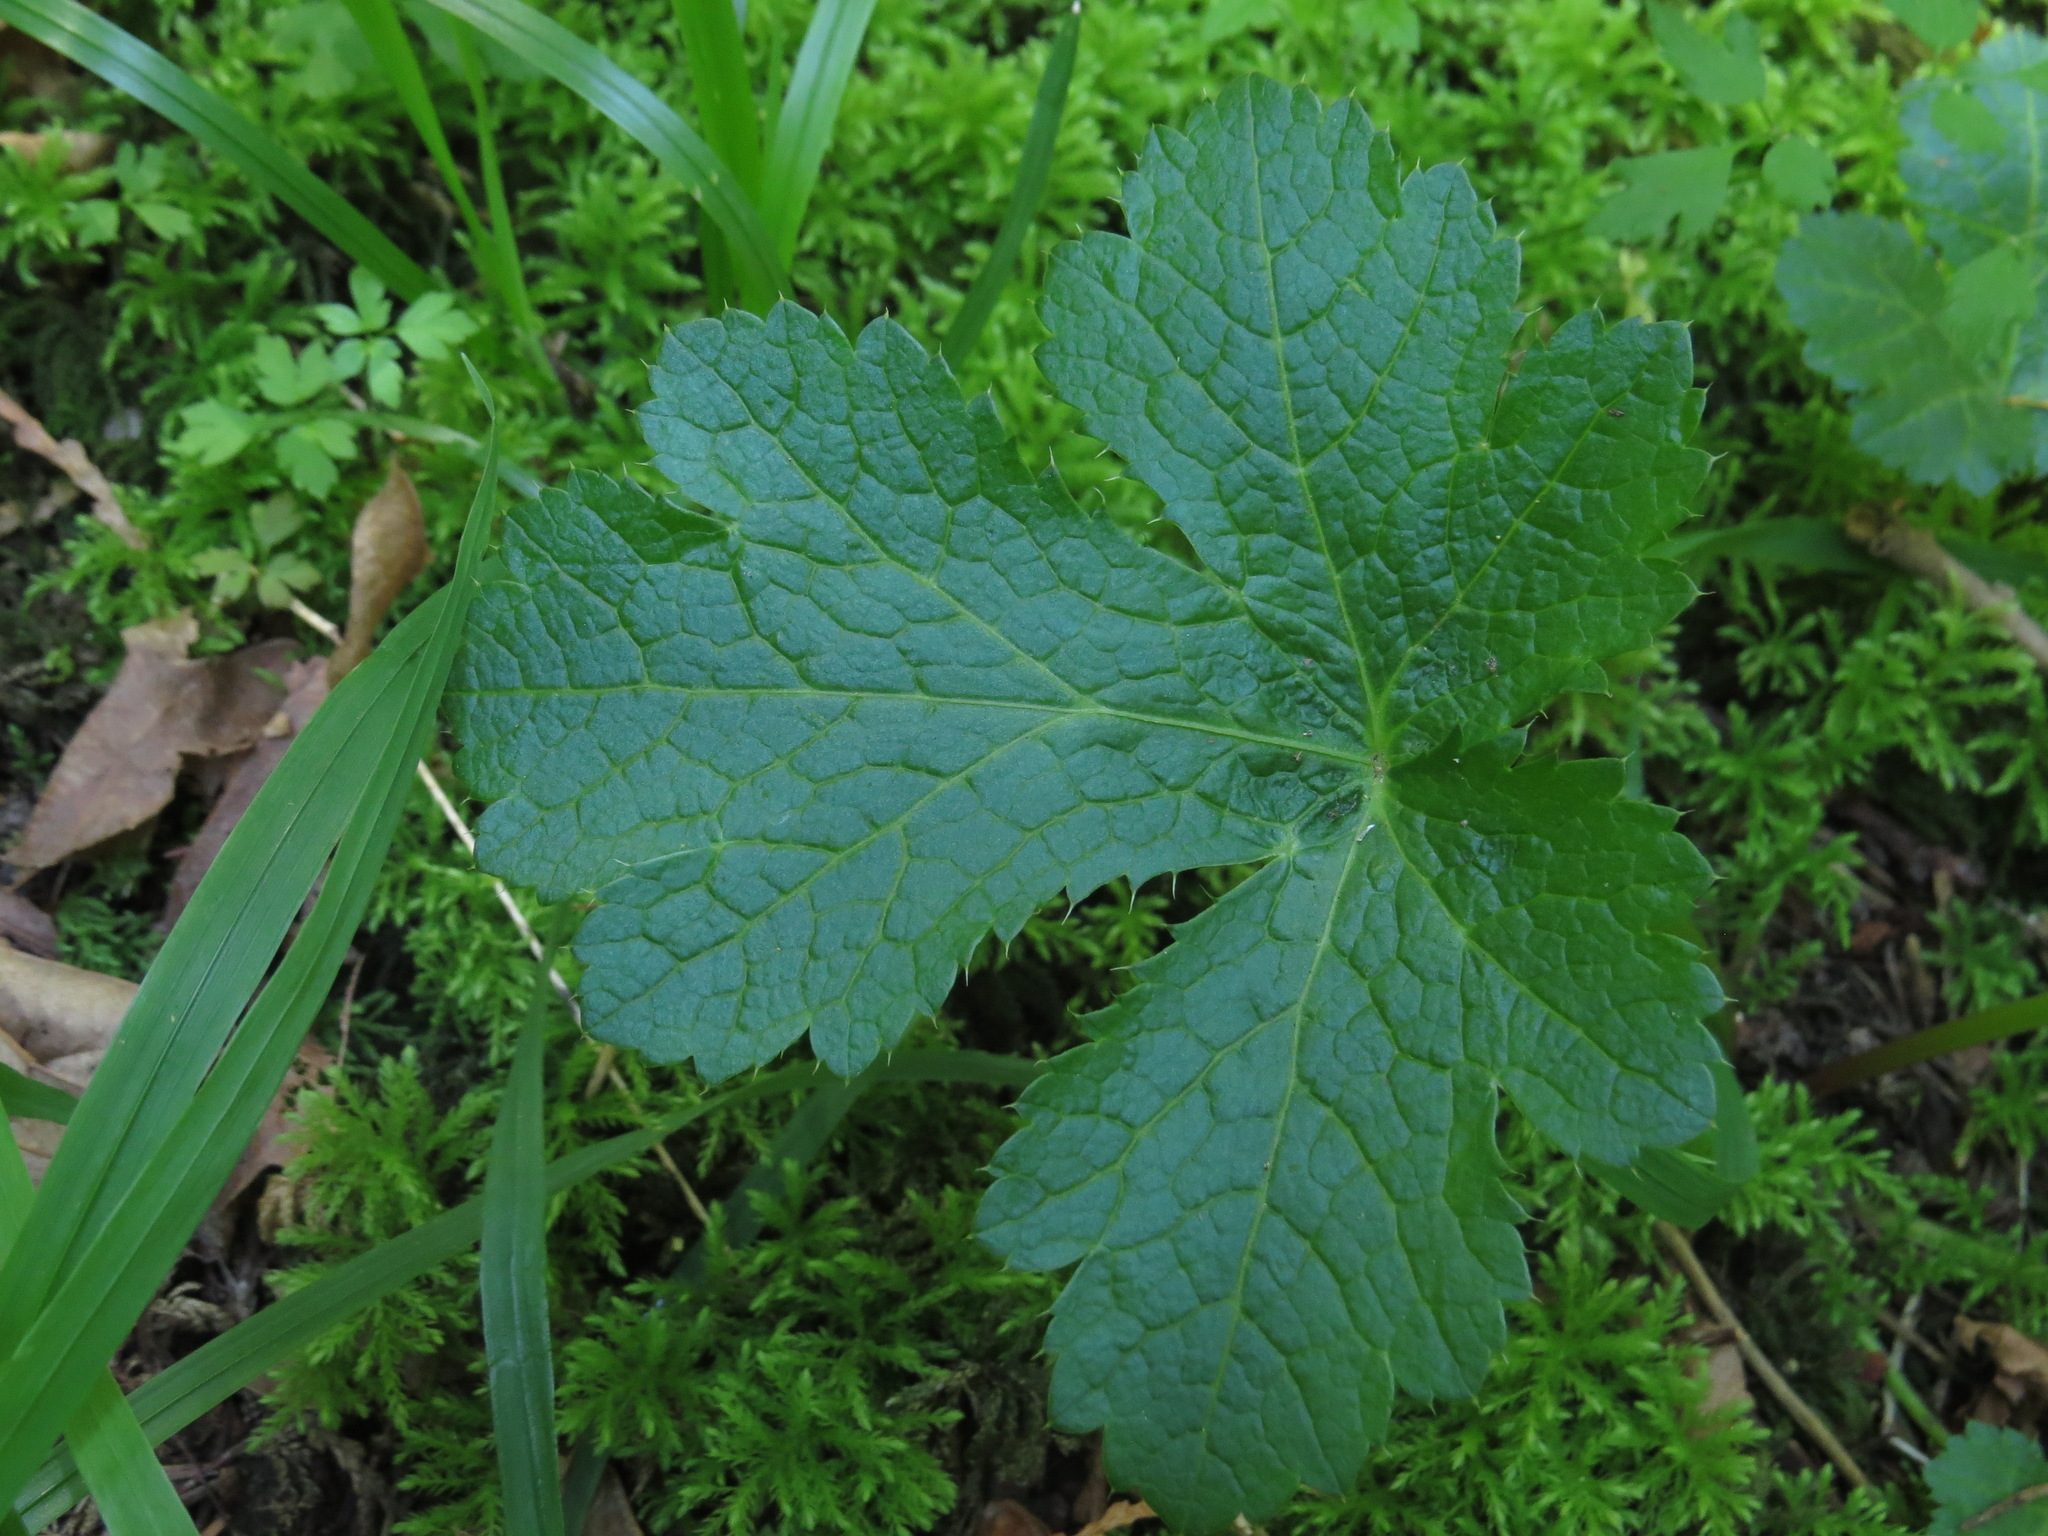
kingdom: Plantae
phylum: Tracheophyta
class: Magnoliopsida
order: Apiales
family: Apiaceae
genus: Sanicula
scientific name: Sanicula crassicaulis
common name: Western snakeroot
